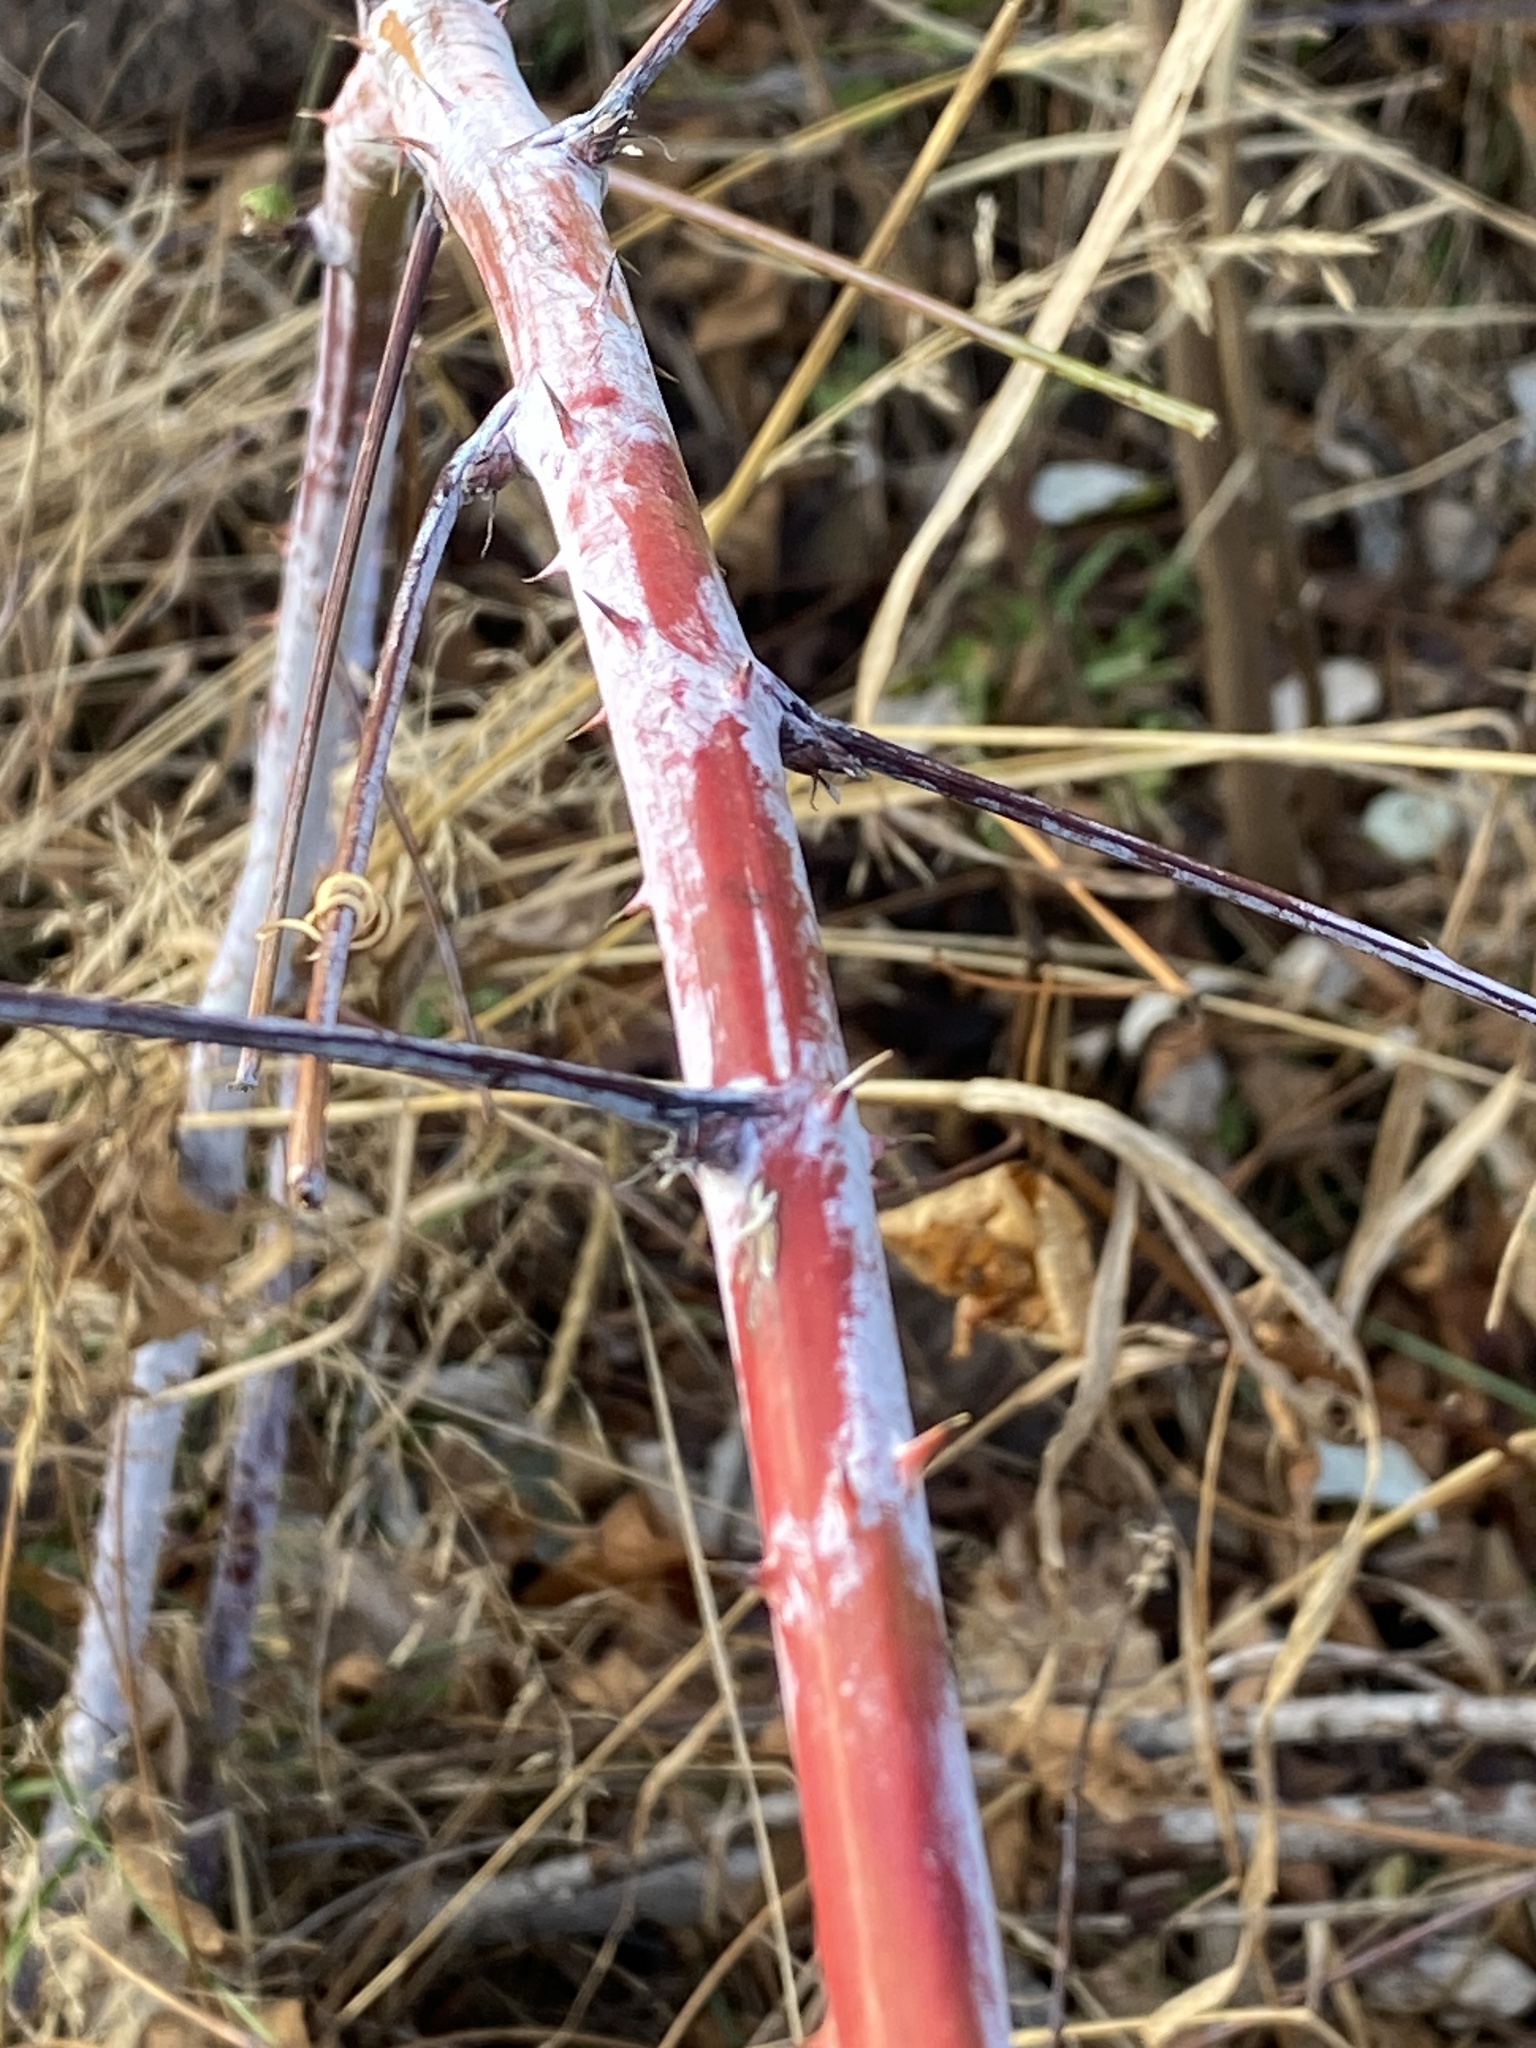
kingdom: Plantae
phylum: Tracheophyta
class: Magnoliopsida
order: Rosales
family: Rosaceae
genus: Rubus
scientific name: Rubus occidentalis
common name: Black raspberry
